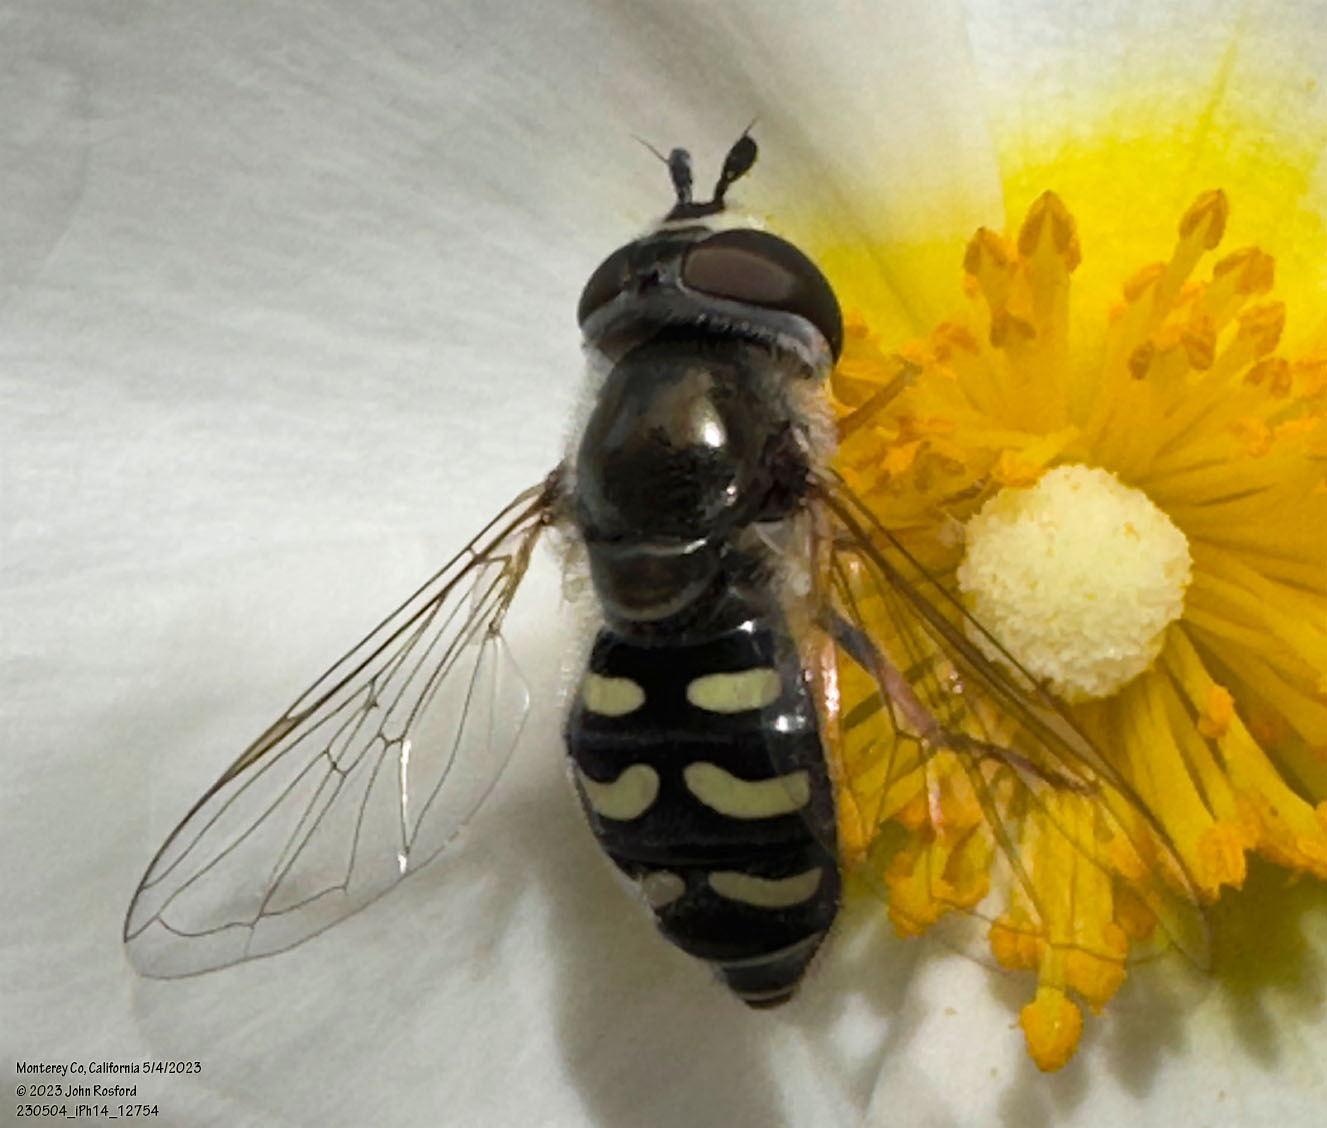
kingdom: Animalia
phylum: Arthropoda
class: Insecta
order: Diptera
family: Syrphidae
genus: Eupeodes
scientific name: Eupeodes volucris
